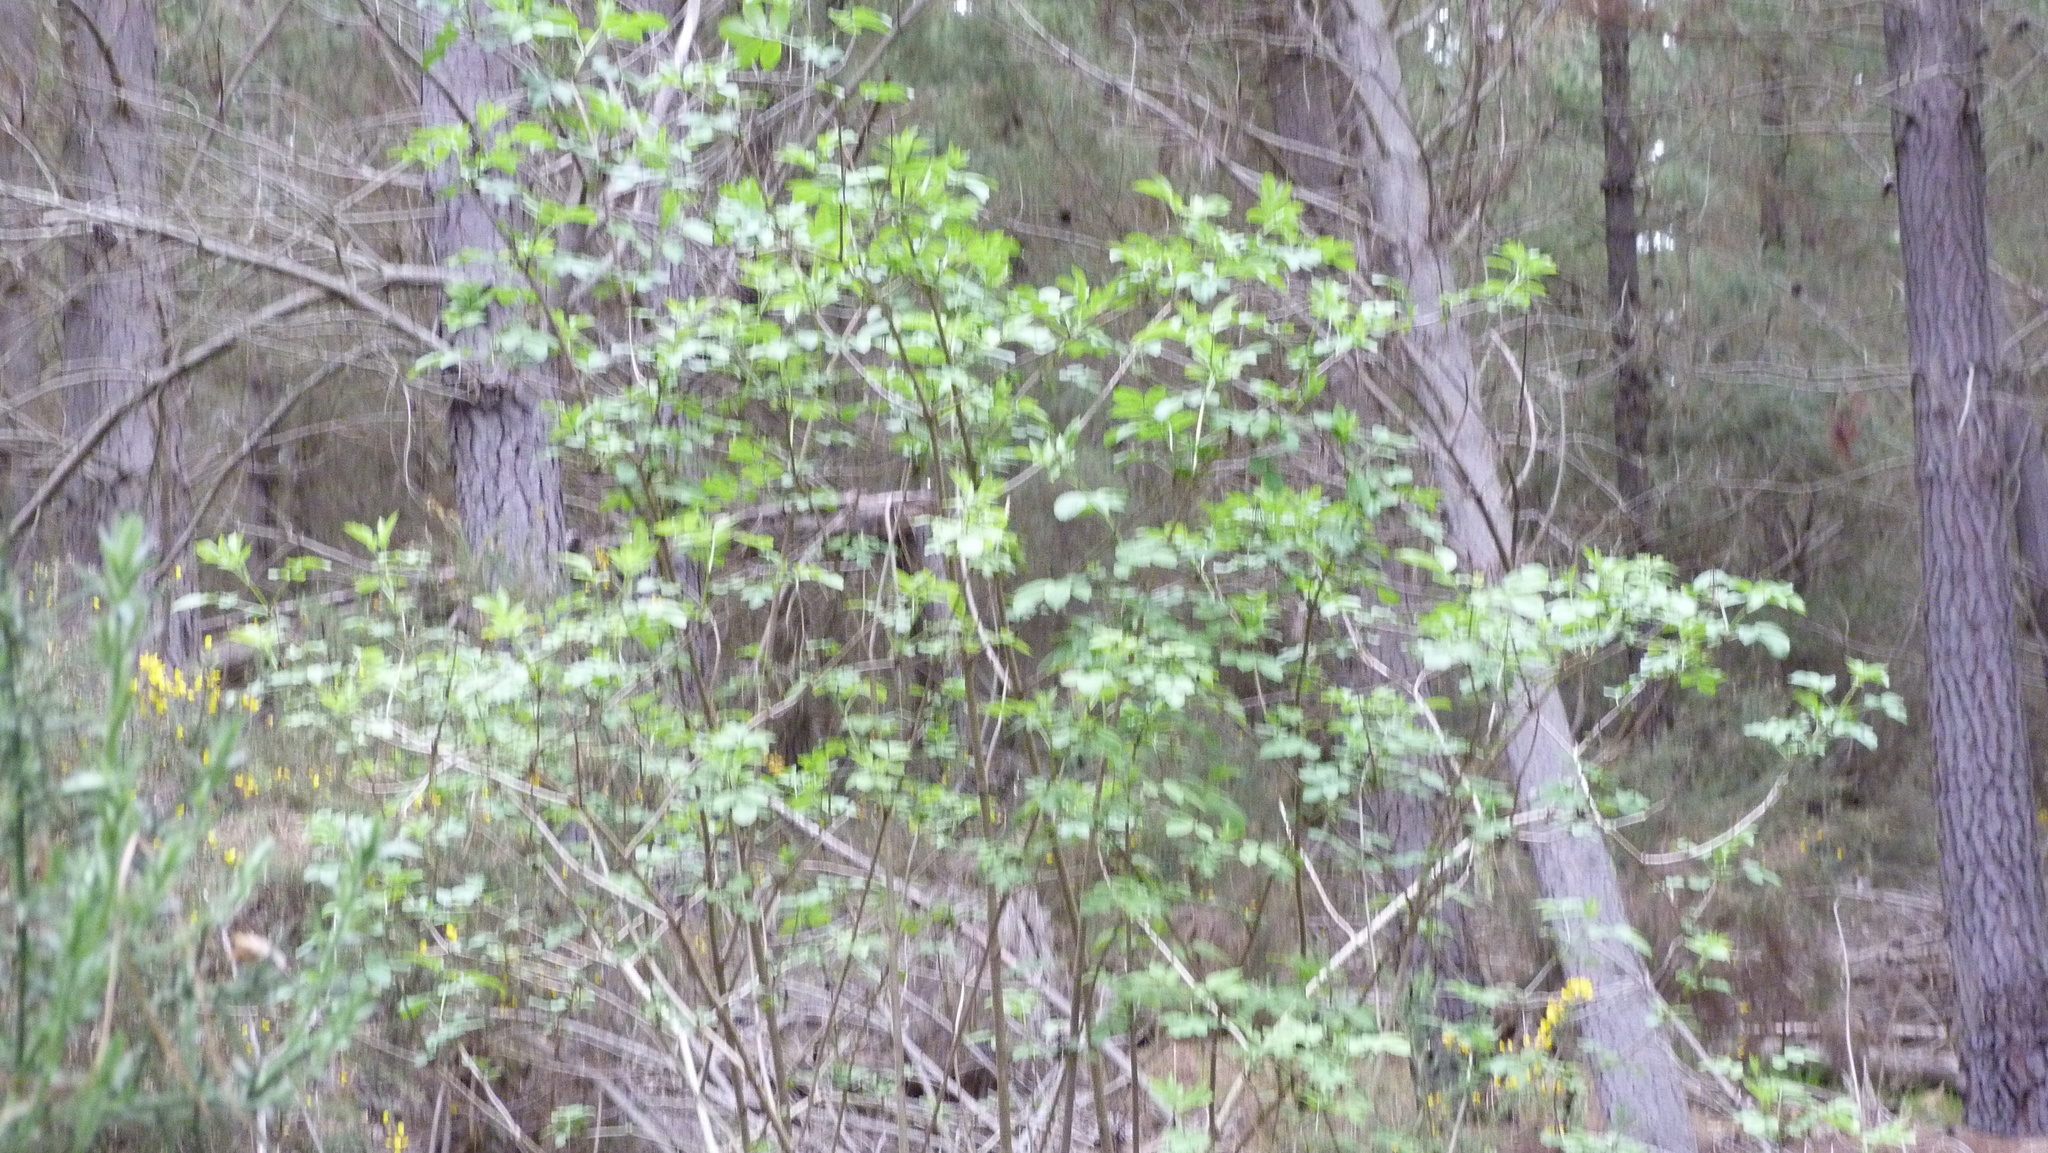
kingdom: Plantae
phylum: Tracheophyta
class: Magnoliopsida
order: Dipsacales
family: Viburnaceae
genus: Sambucus
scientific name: Sambucus nigra
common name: Elder
